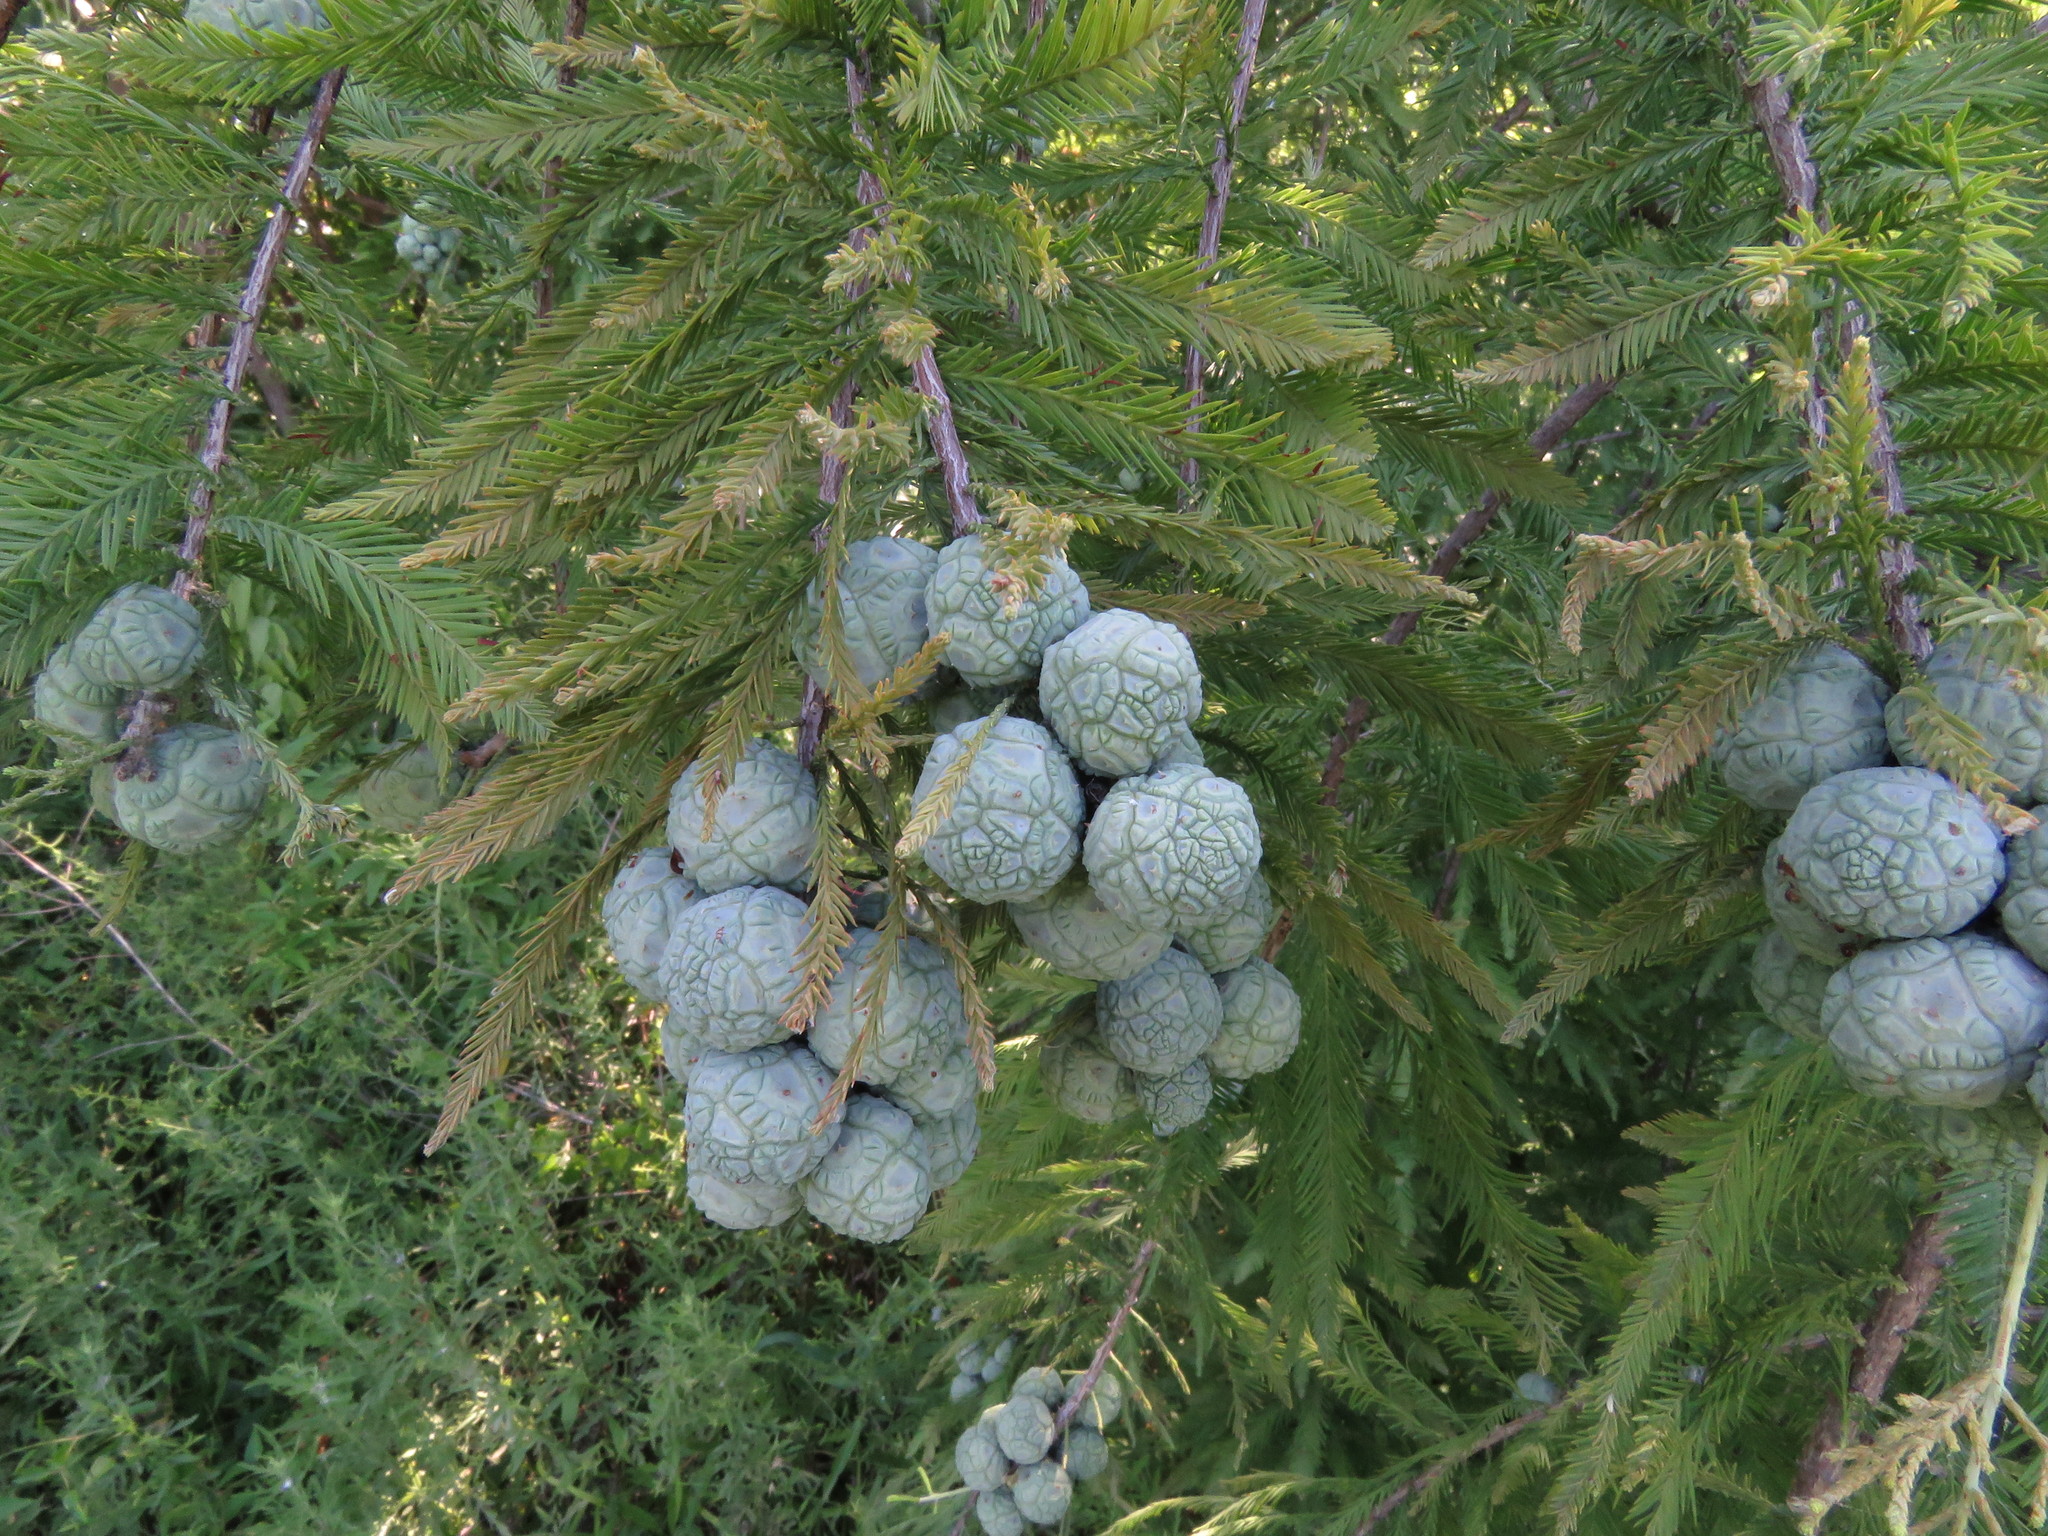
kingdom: Plantae
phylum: Tracheophyta
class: Pinopsida
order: Pinales
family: Cupressaceae
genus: Taxodium
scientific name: Taxodium distichum
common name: Bald cypress
